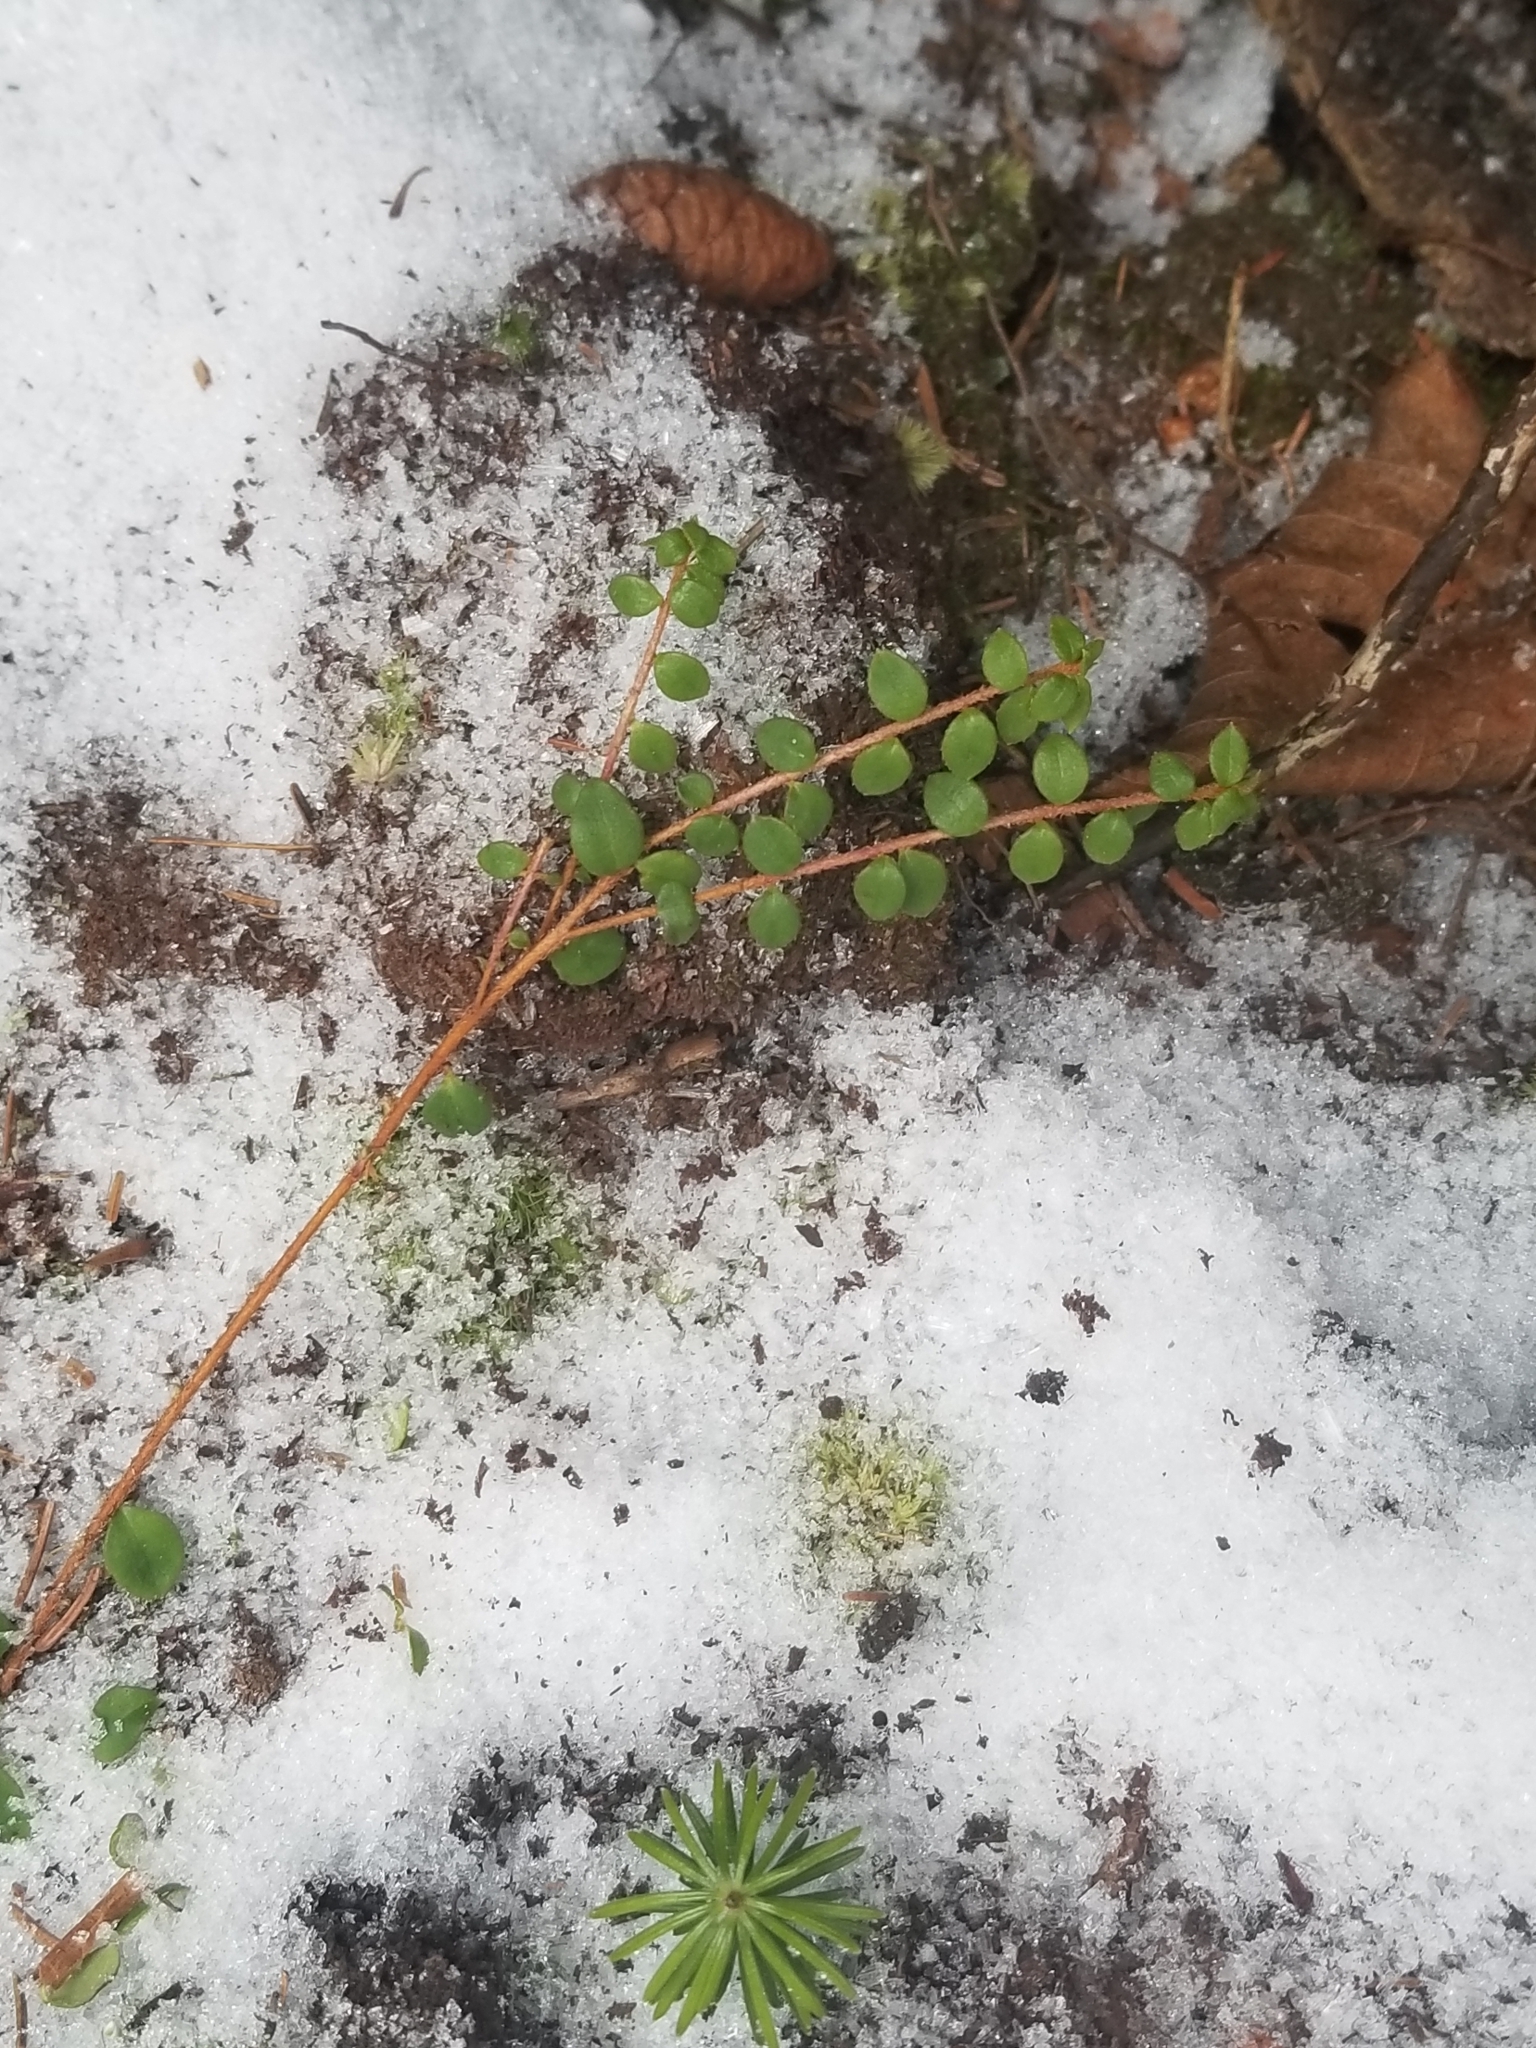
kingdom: Plantae
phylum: Tracheophyta
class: Magnoliopsida
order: Ericales
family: Ericaceae
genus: Gaultheria
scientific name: Gaultheria hispidula
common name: Cancer wintergreen
